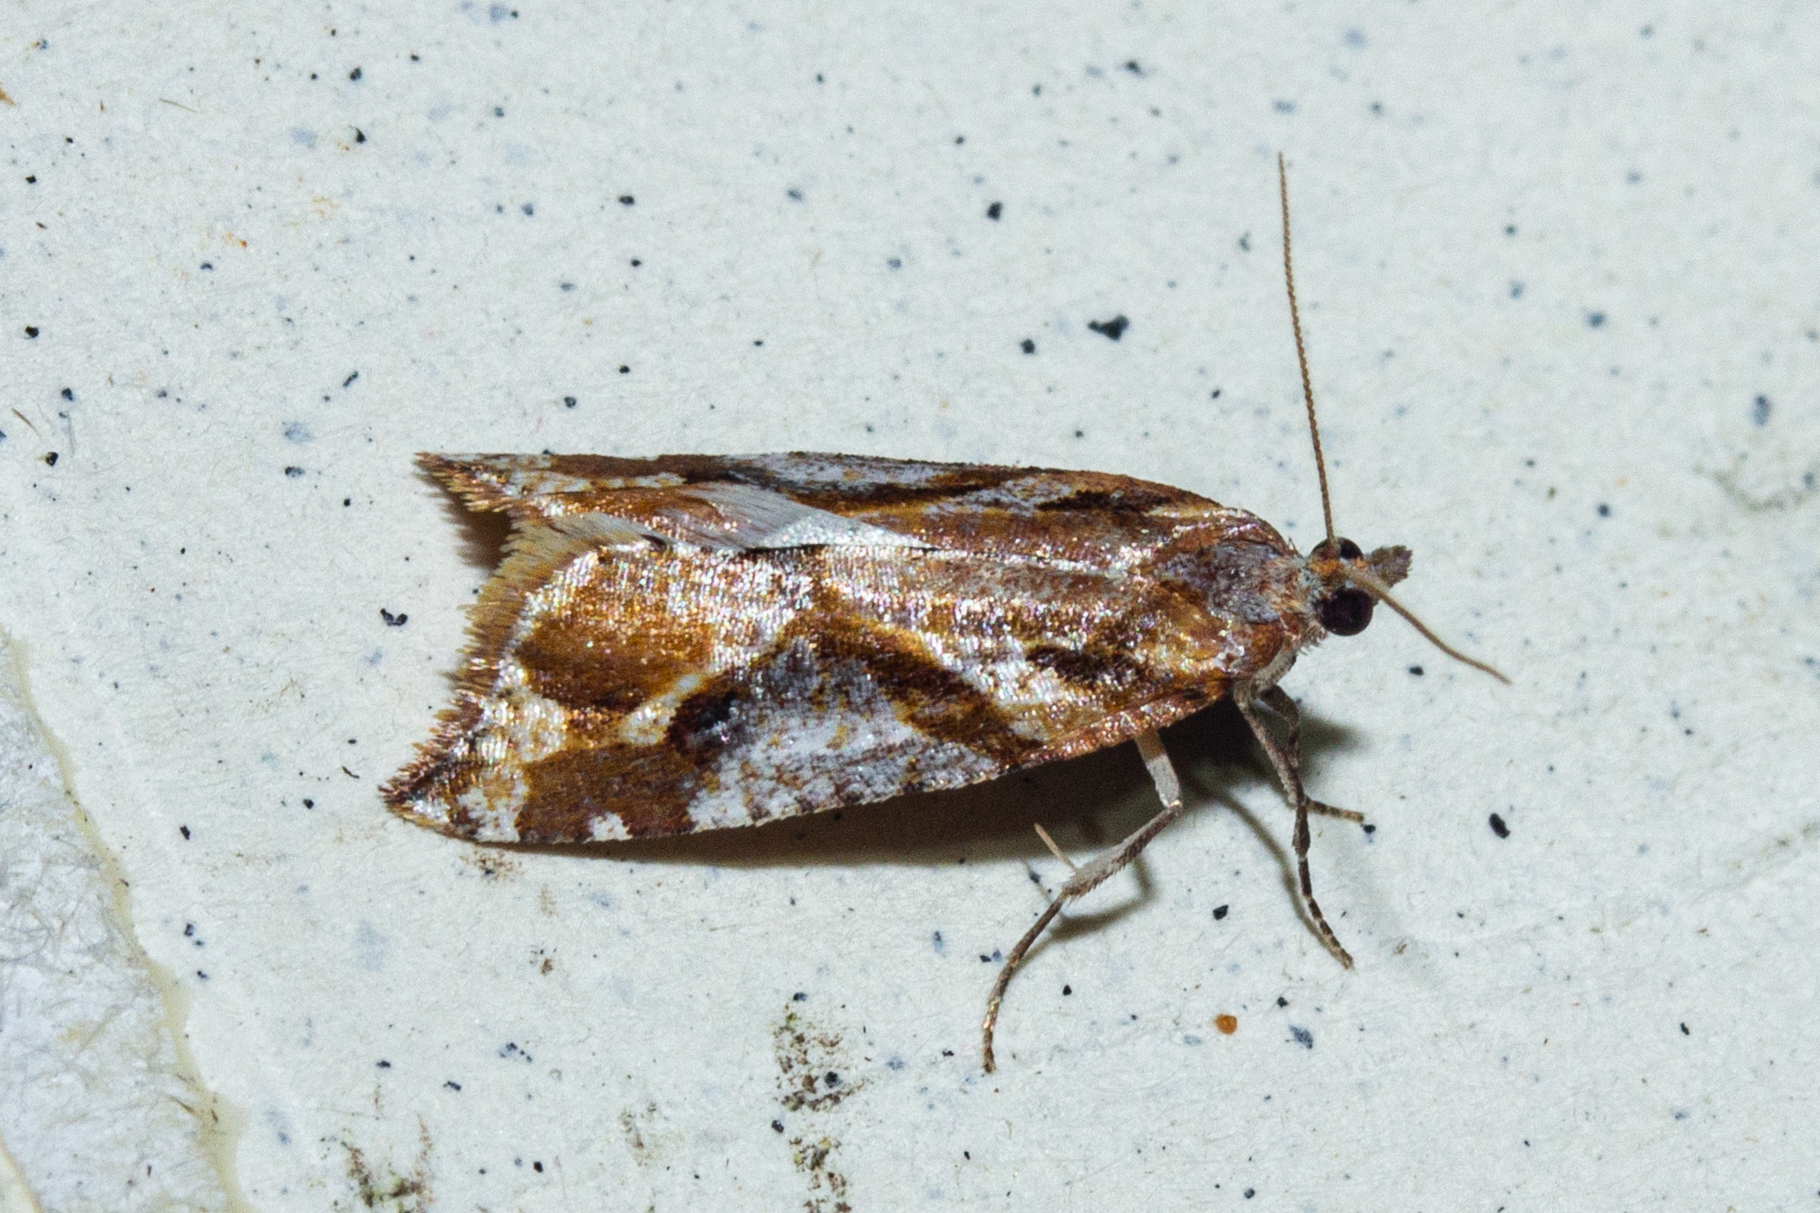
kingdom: Animalia
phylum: Arthropoda
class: Insecta
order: Lepidoptera
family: Tortricidae
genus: Pyrgotis
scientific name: Pyrgotis plagiatana
